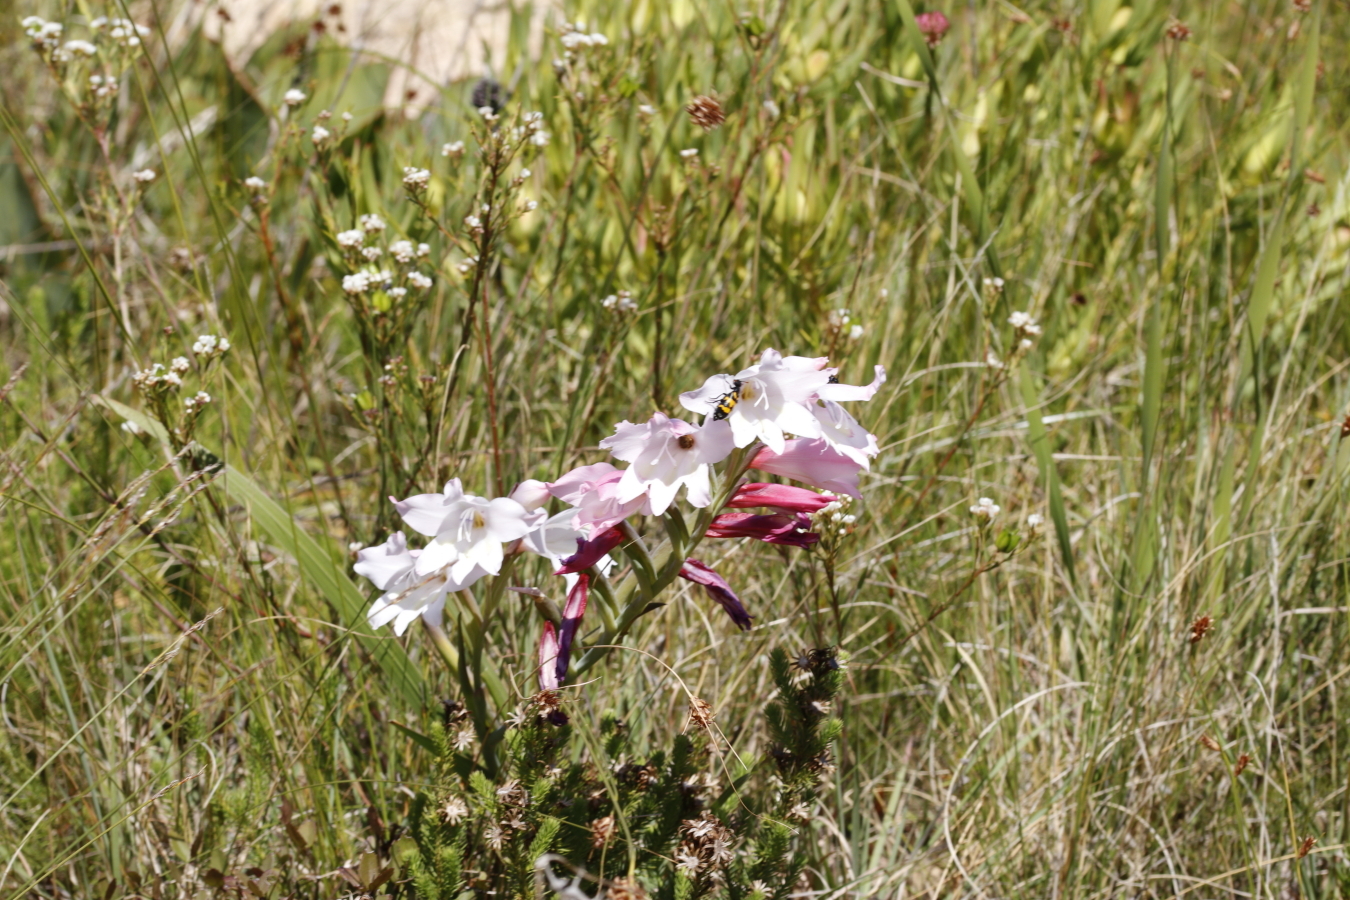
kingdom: Plantae
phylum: Tracheophyta
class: Liliopsida
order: Asparagales
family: Iridaceae
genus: Gladiolus
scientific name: Gladiolus carneus
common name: Painted-lady
